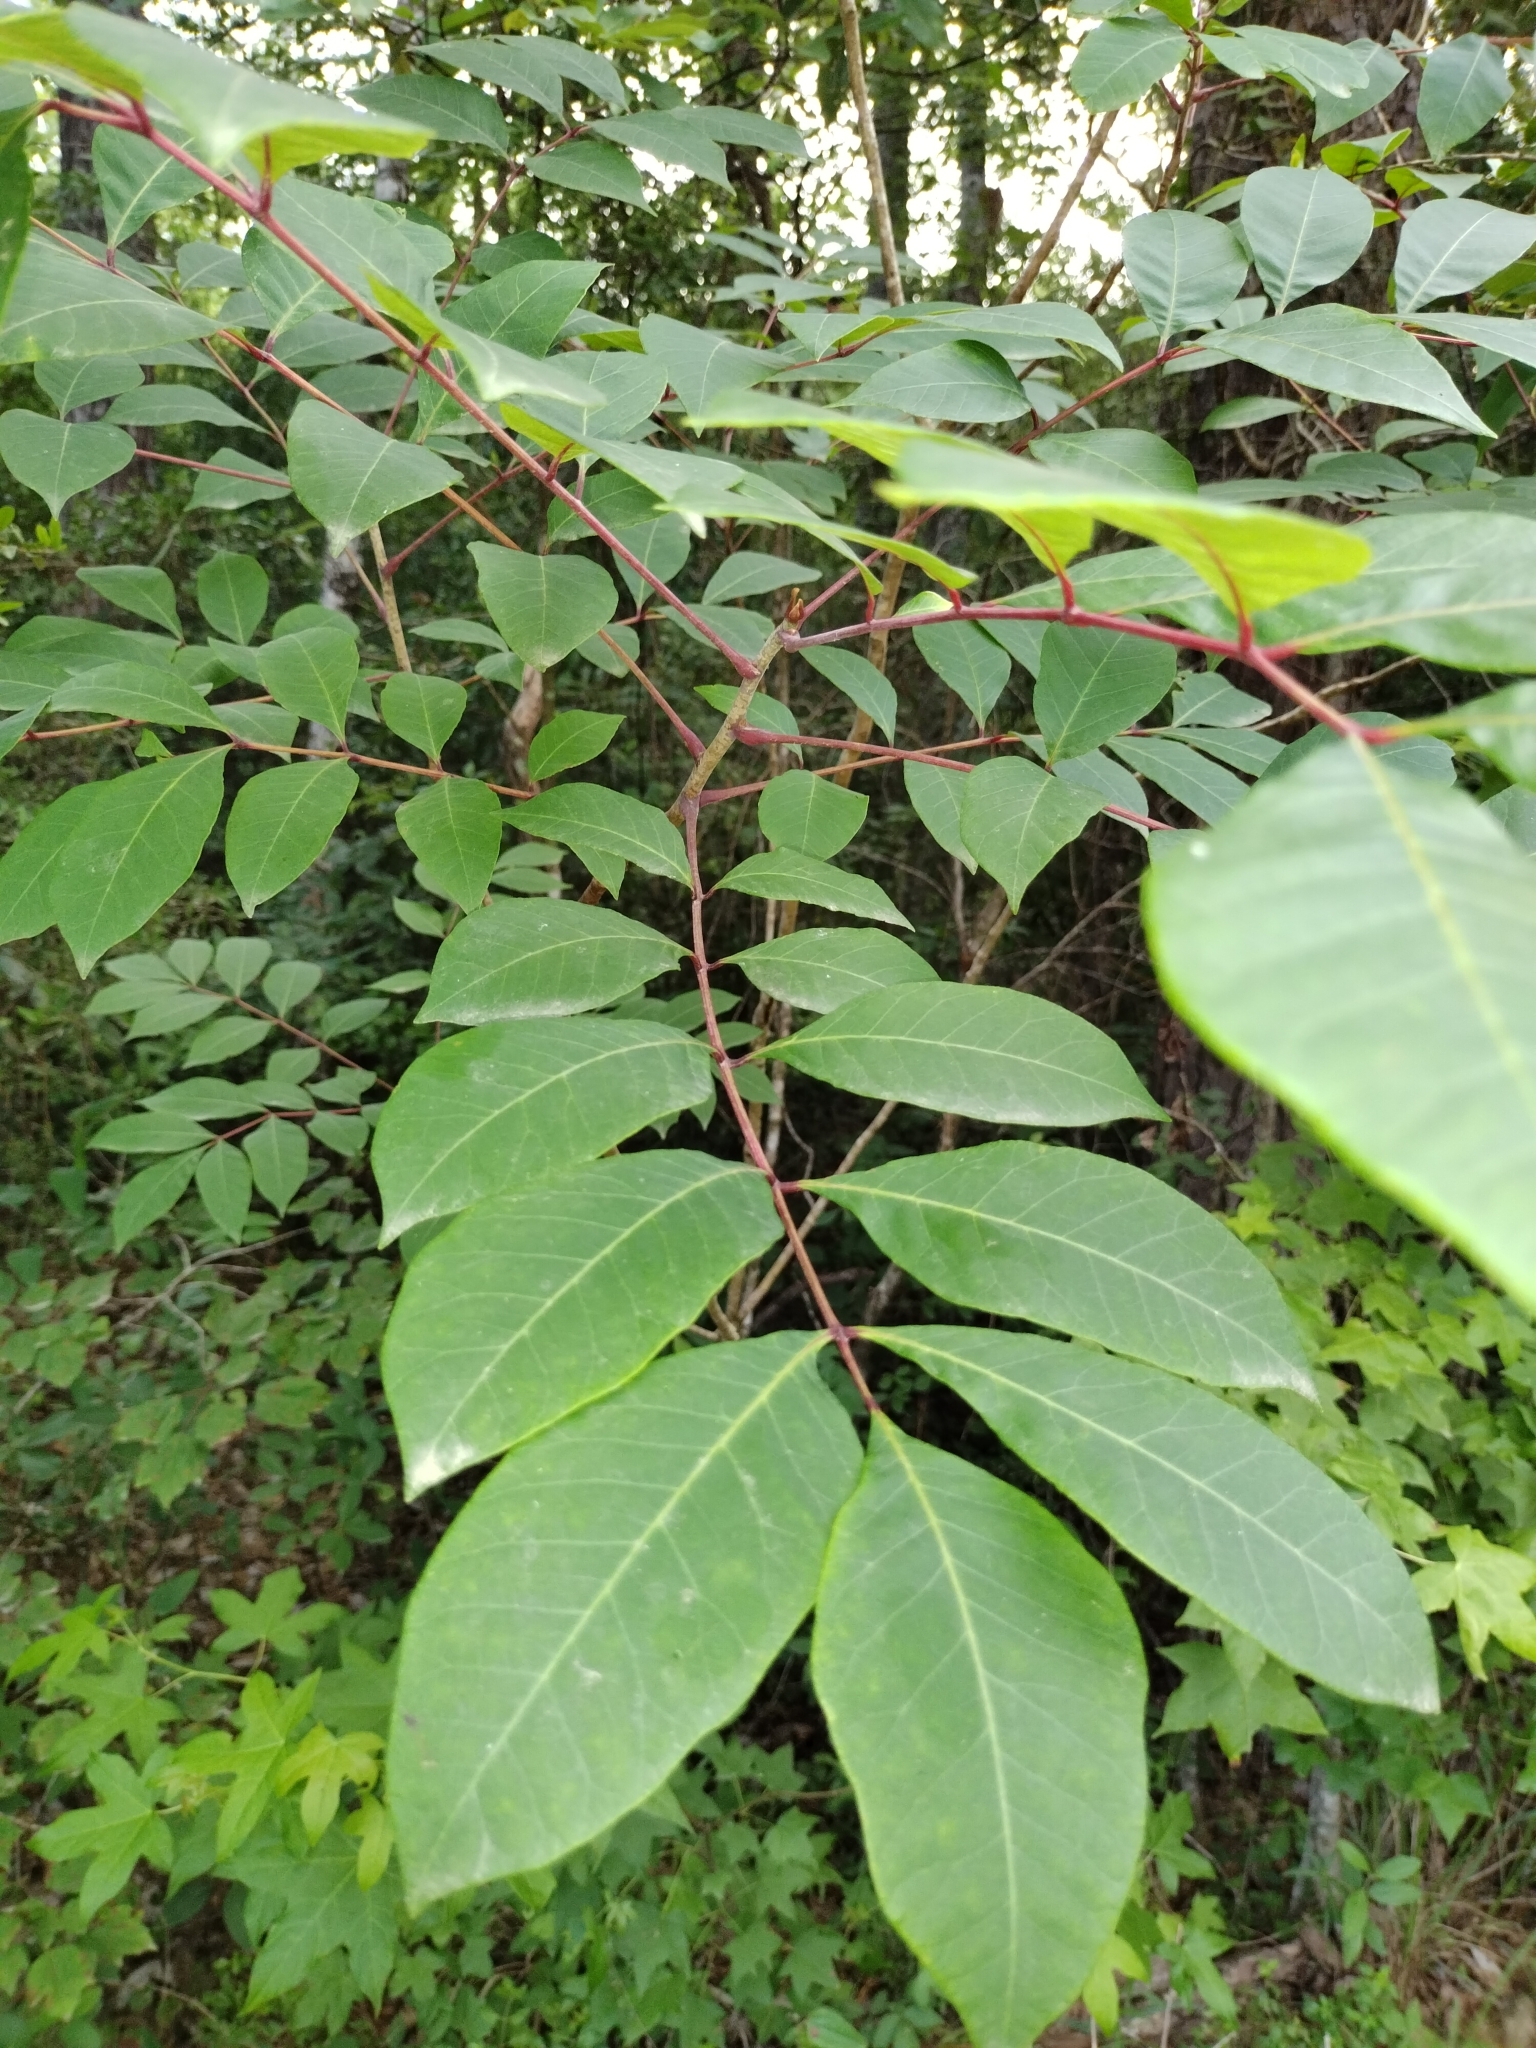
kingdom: Plantae
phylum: Tracheophyta
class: Magnoliopsida
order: Sapindales
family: Anacardiaceae
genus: Toxicodendron
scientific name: Toxicodendron vernix
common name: Poison sumac
